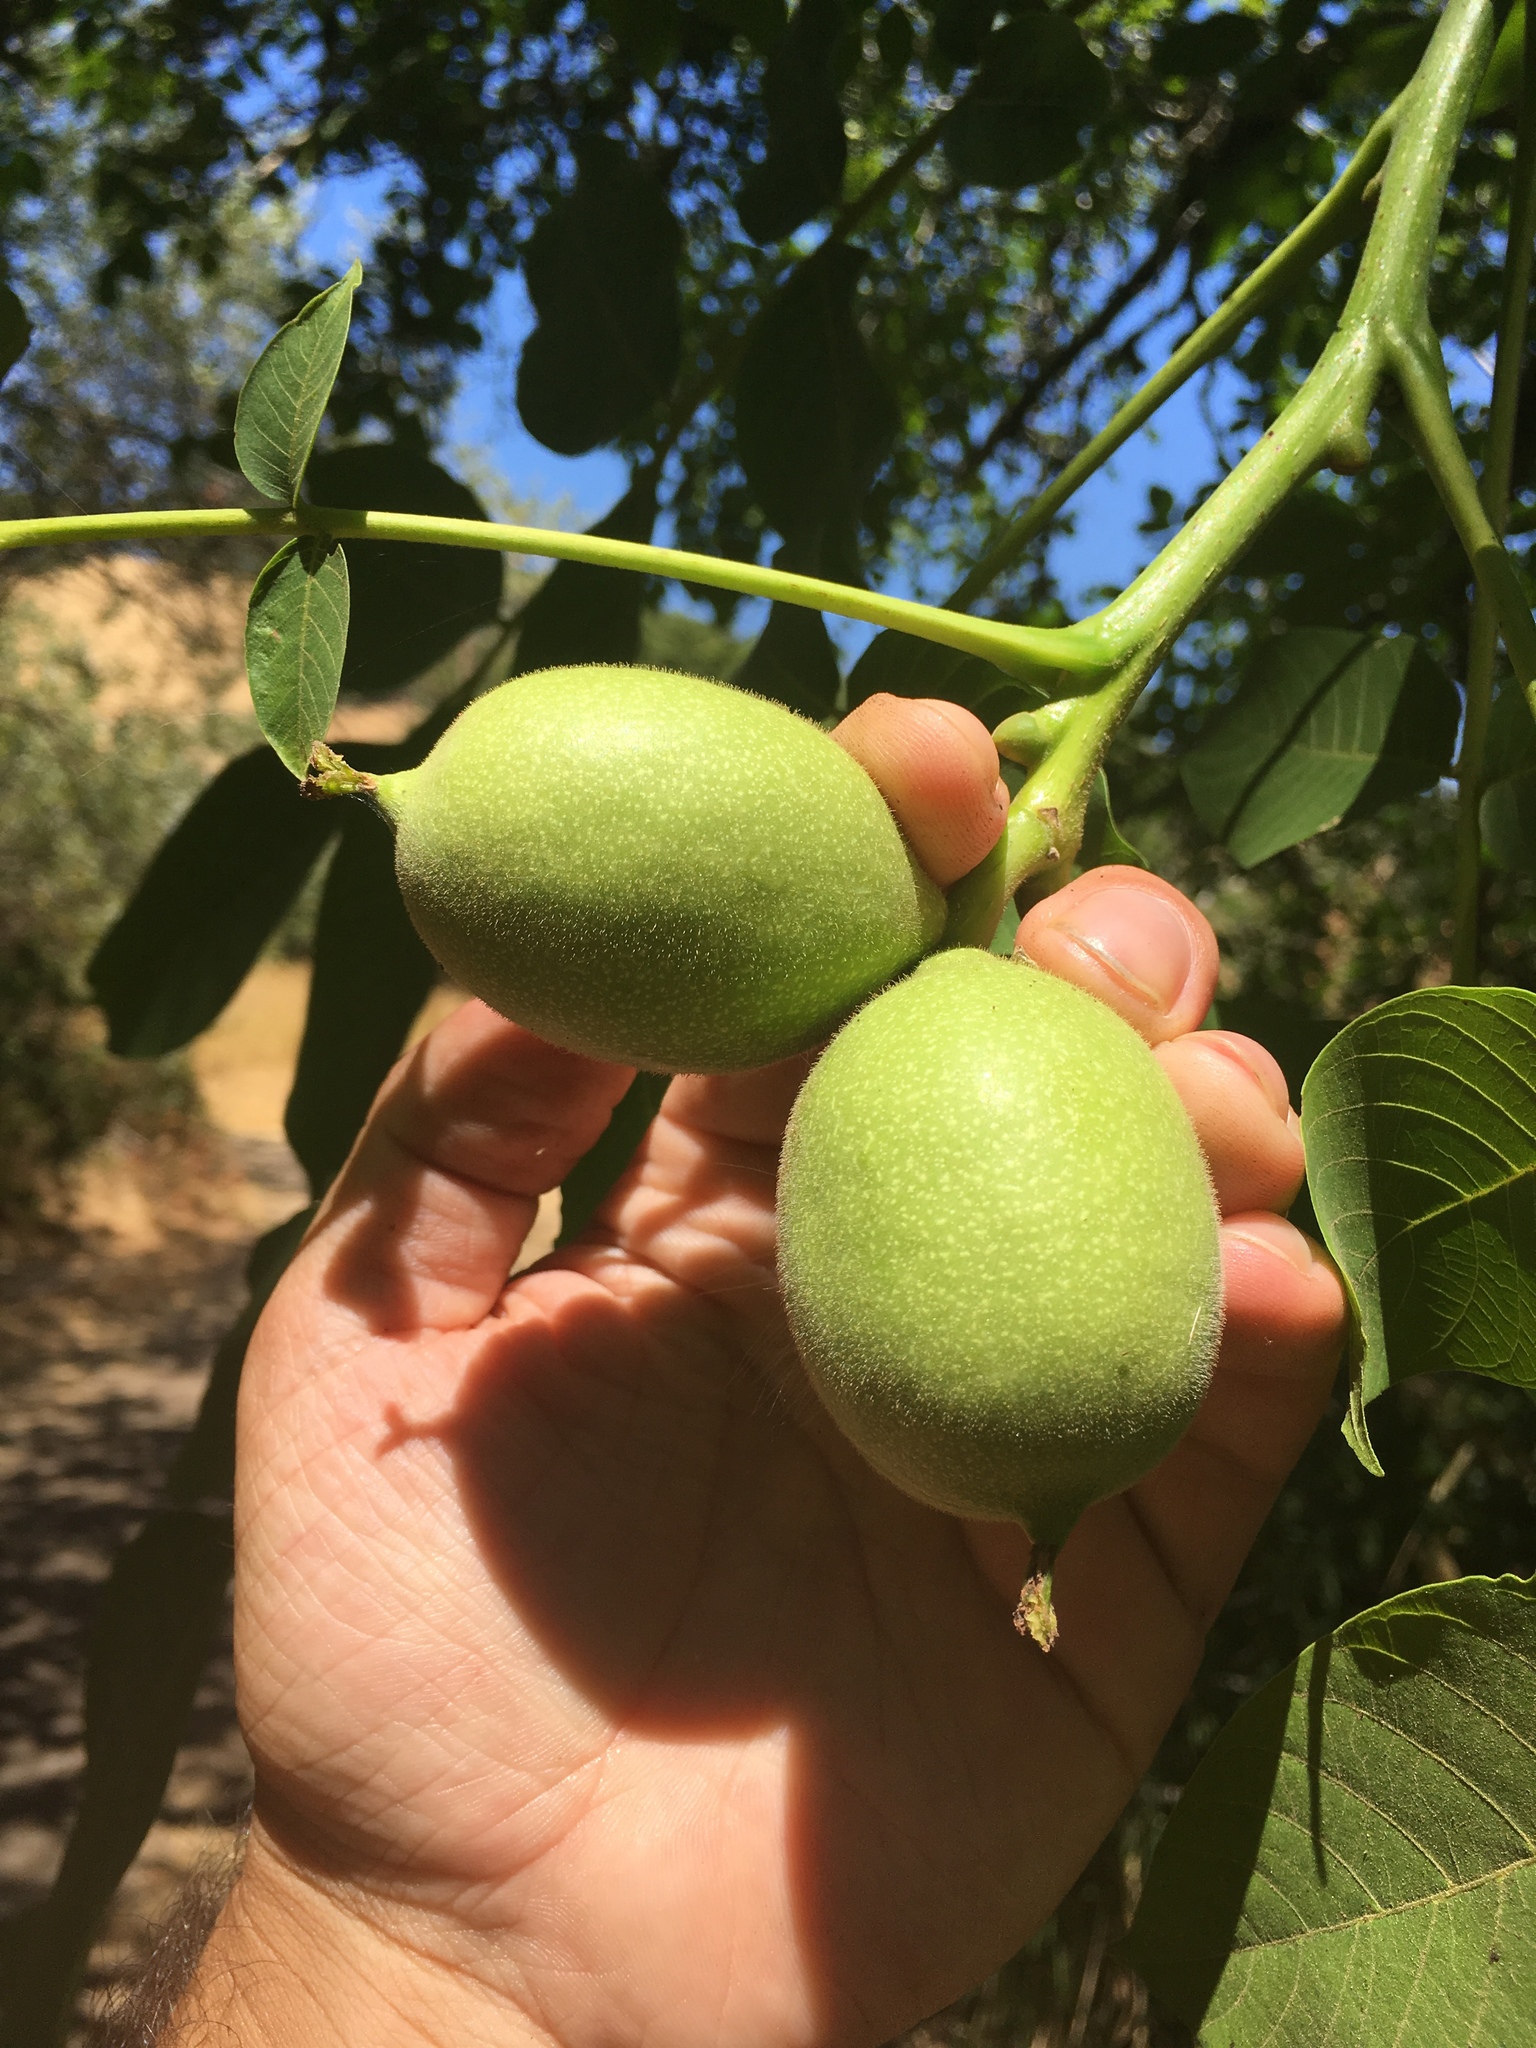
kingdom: Plantae
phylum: Tracheophyta
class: Magnoliopsida
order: Fagales
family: Juglandaceae
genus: Juglans
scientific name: Juglans regia
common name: Walnut
